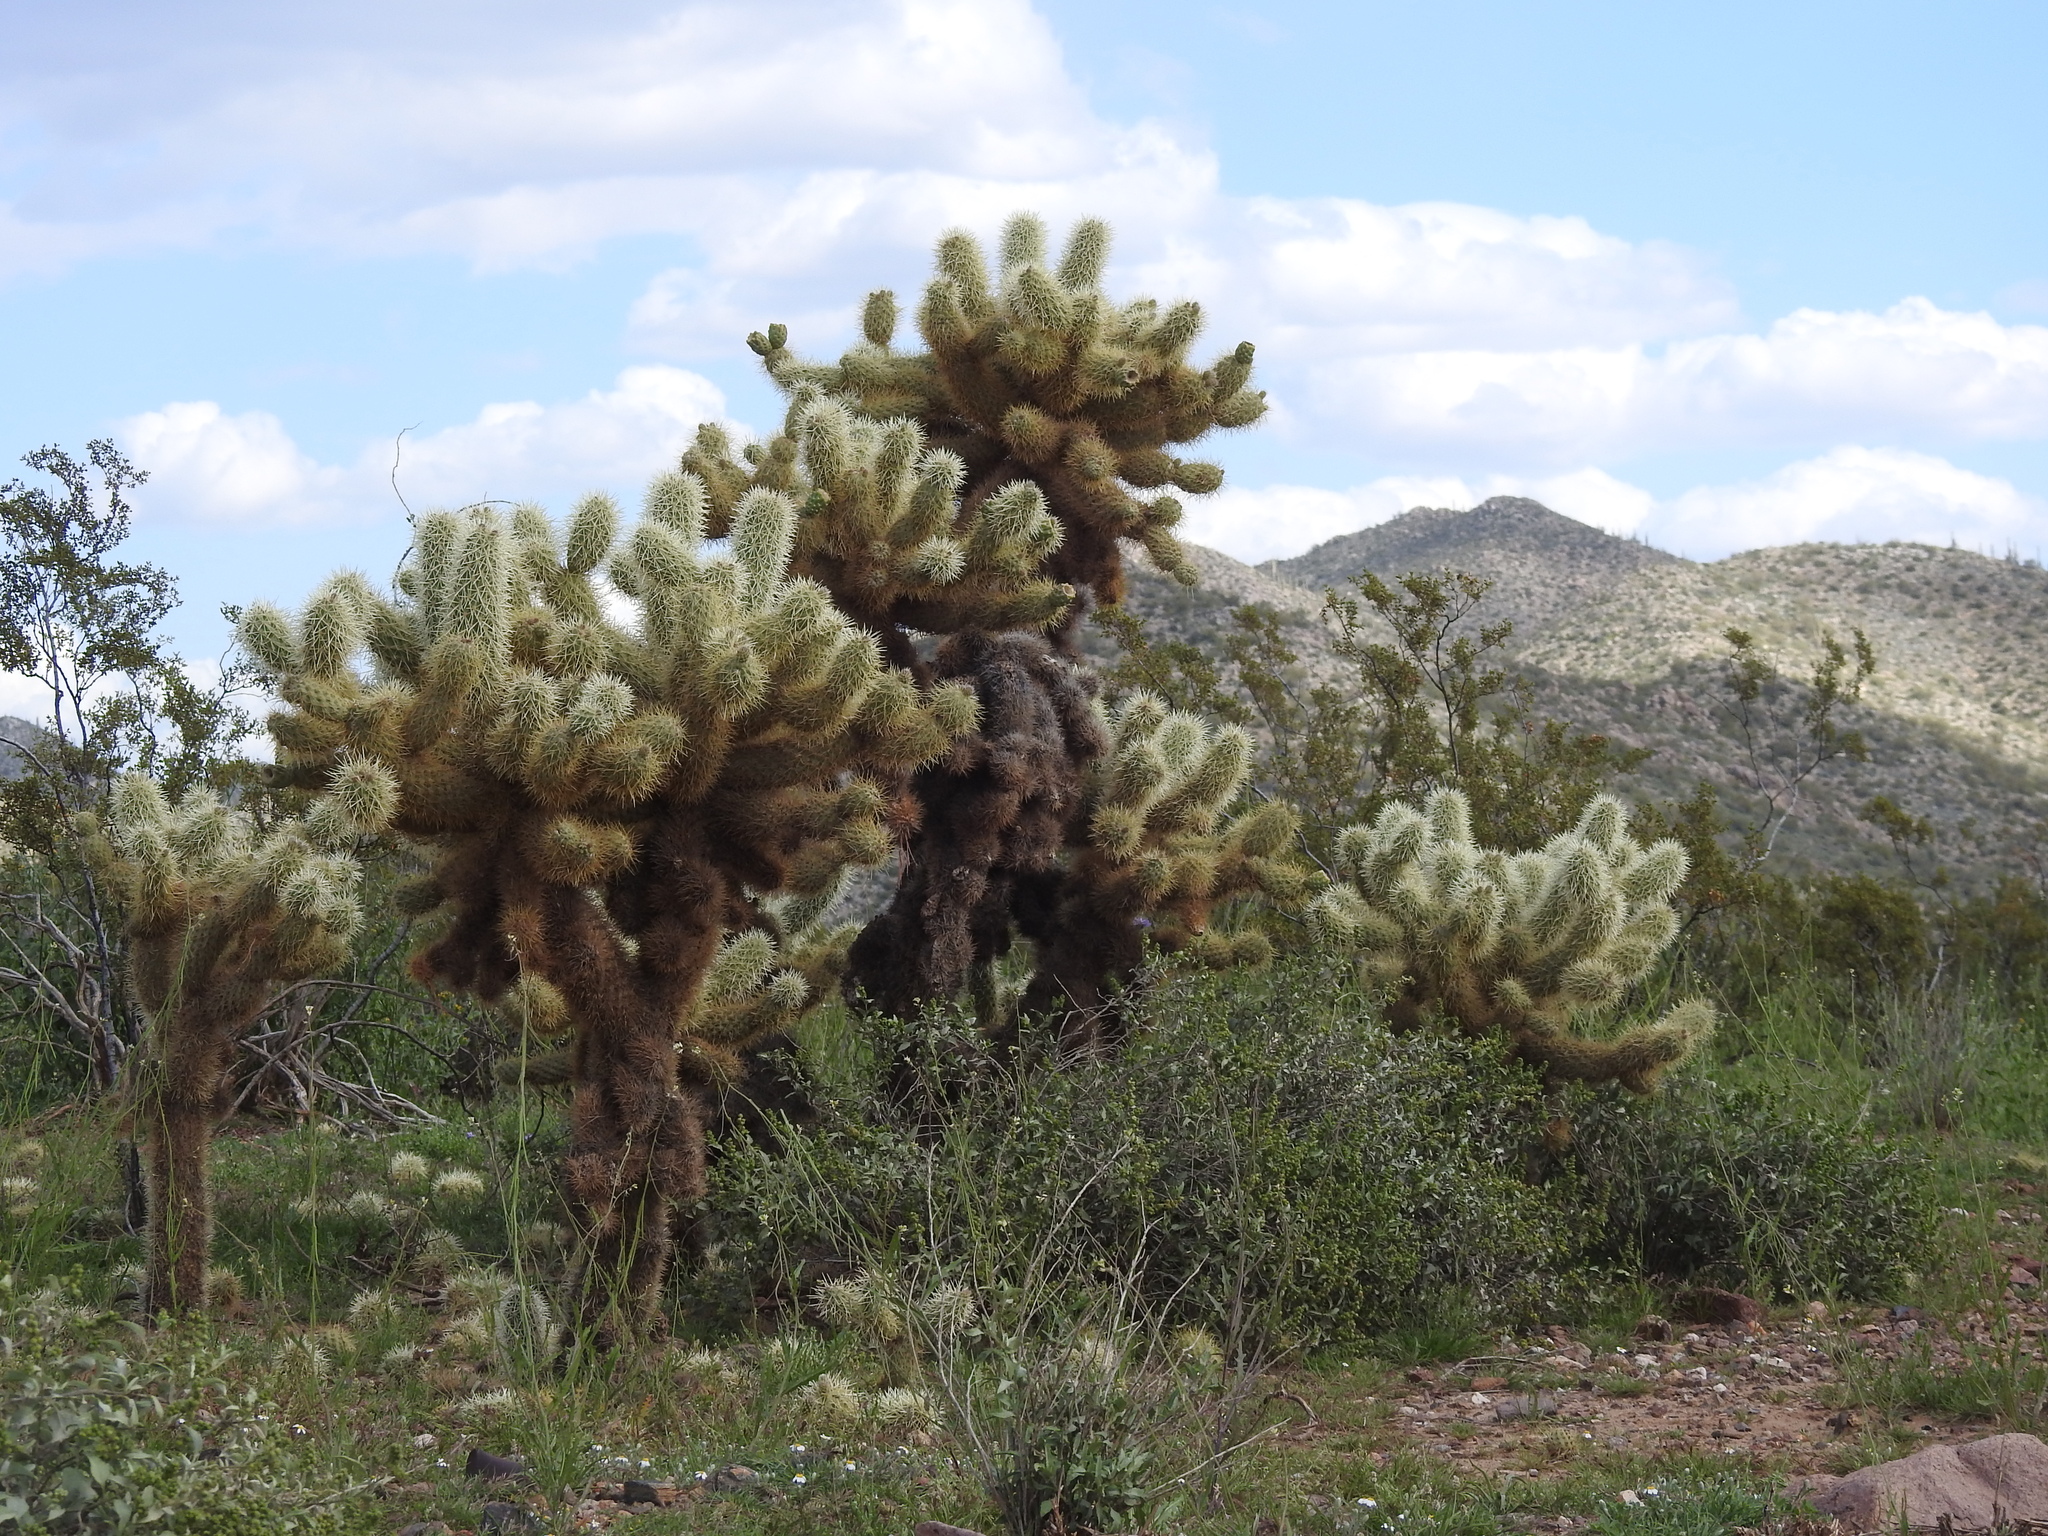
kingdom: Plantae
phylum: Tracheophyta
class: Magnoliopsida
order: Caryophyllales
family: Cactaceae
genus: Cylindropuntia
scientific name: Cylindropuntia fosbergii
